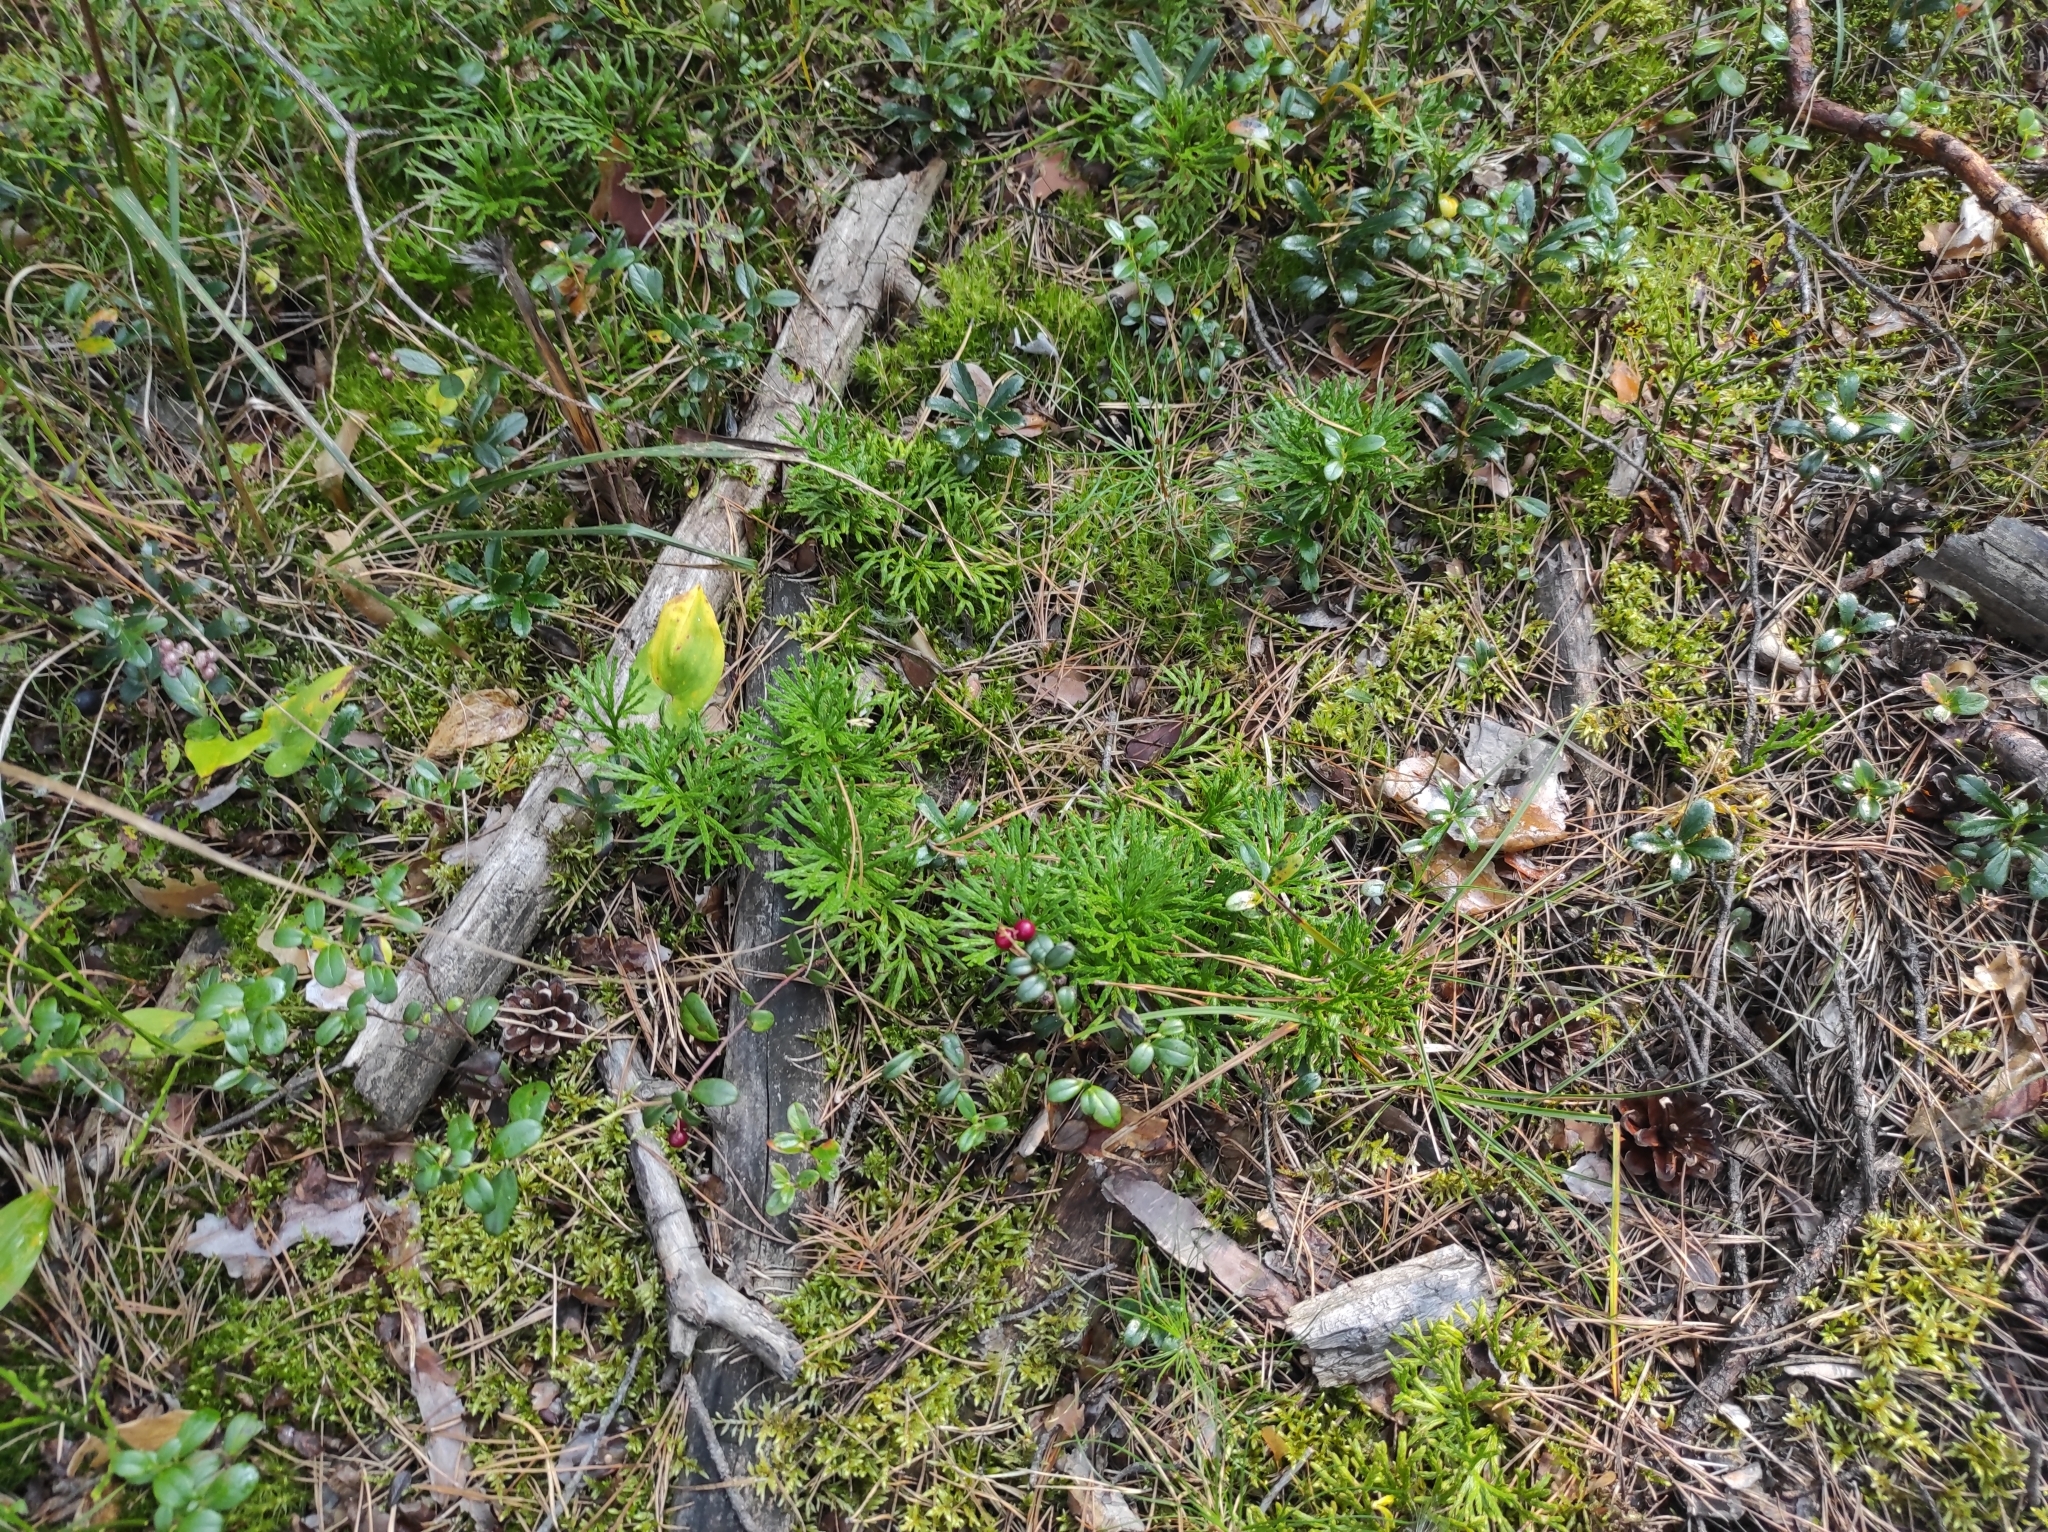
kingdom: Plantae
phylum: Tracheophyta
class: Magnoliopsida
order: Ericales
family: Ericaceae
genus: Vaccinium
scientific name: Vaccinium vitis-idaea
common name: Cowberry
